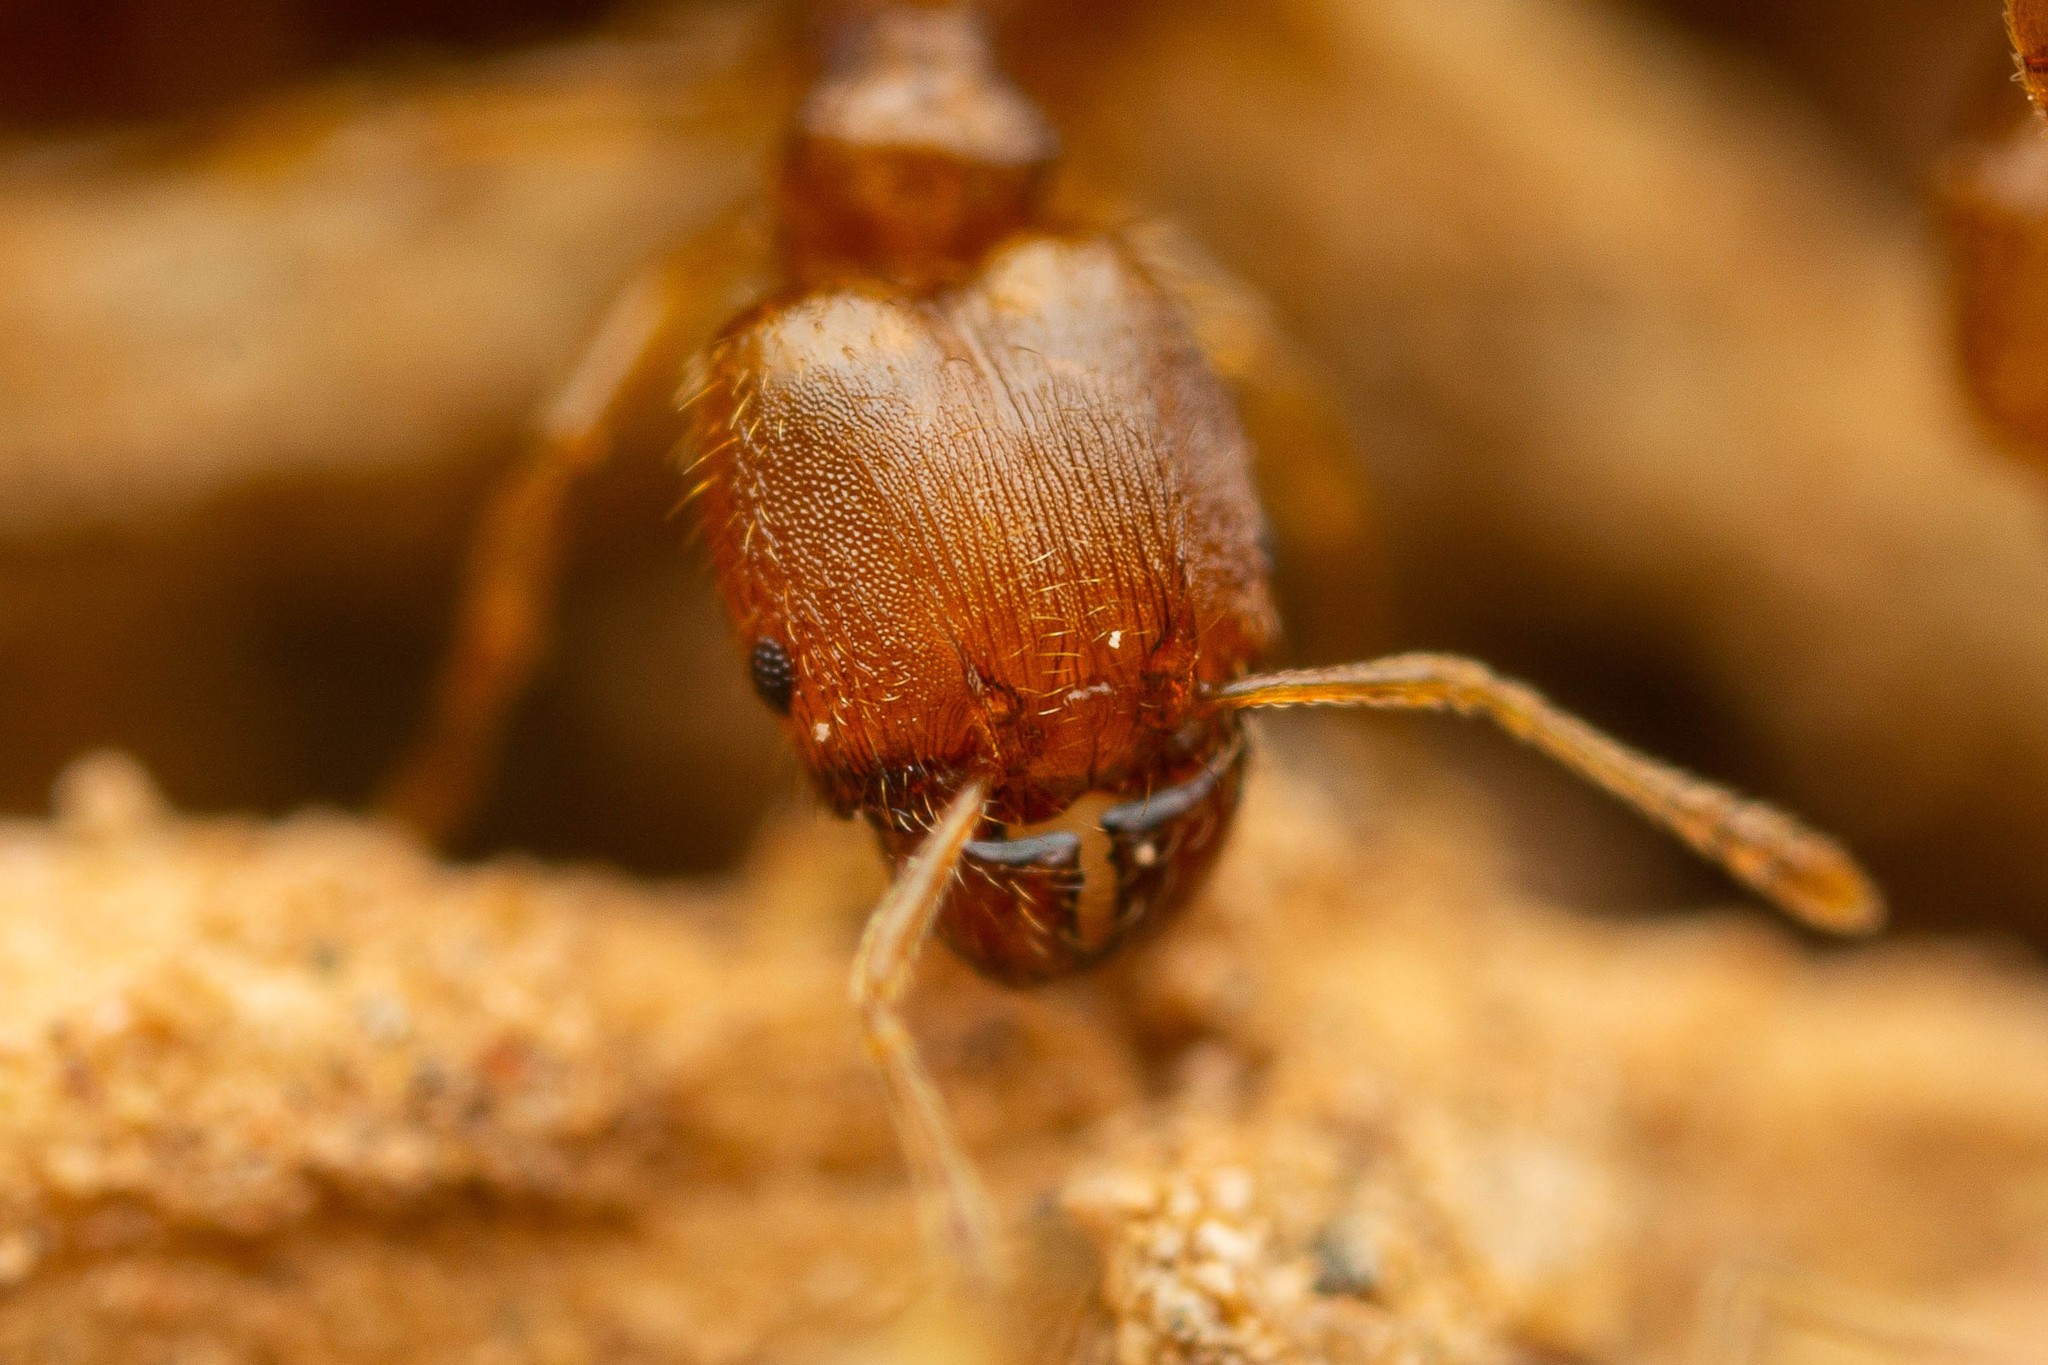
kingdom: Animalia
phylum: Arthropoda
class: Insecta
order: Hymenoptera
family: Formicidae
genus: Pheidole
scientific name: Pheidole bilimeki
